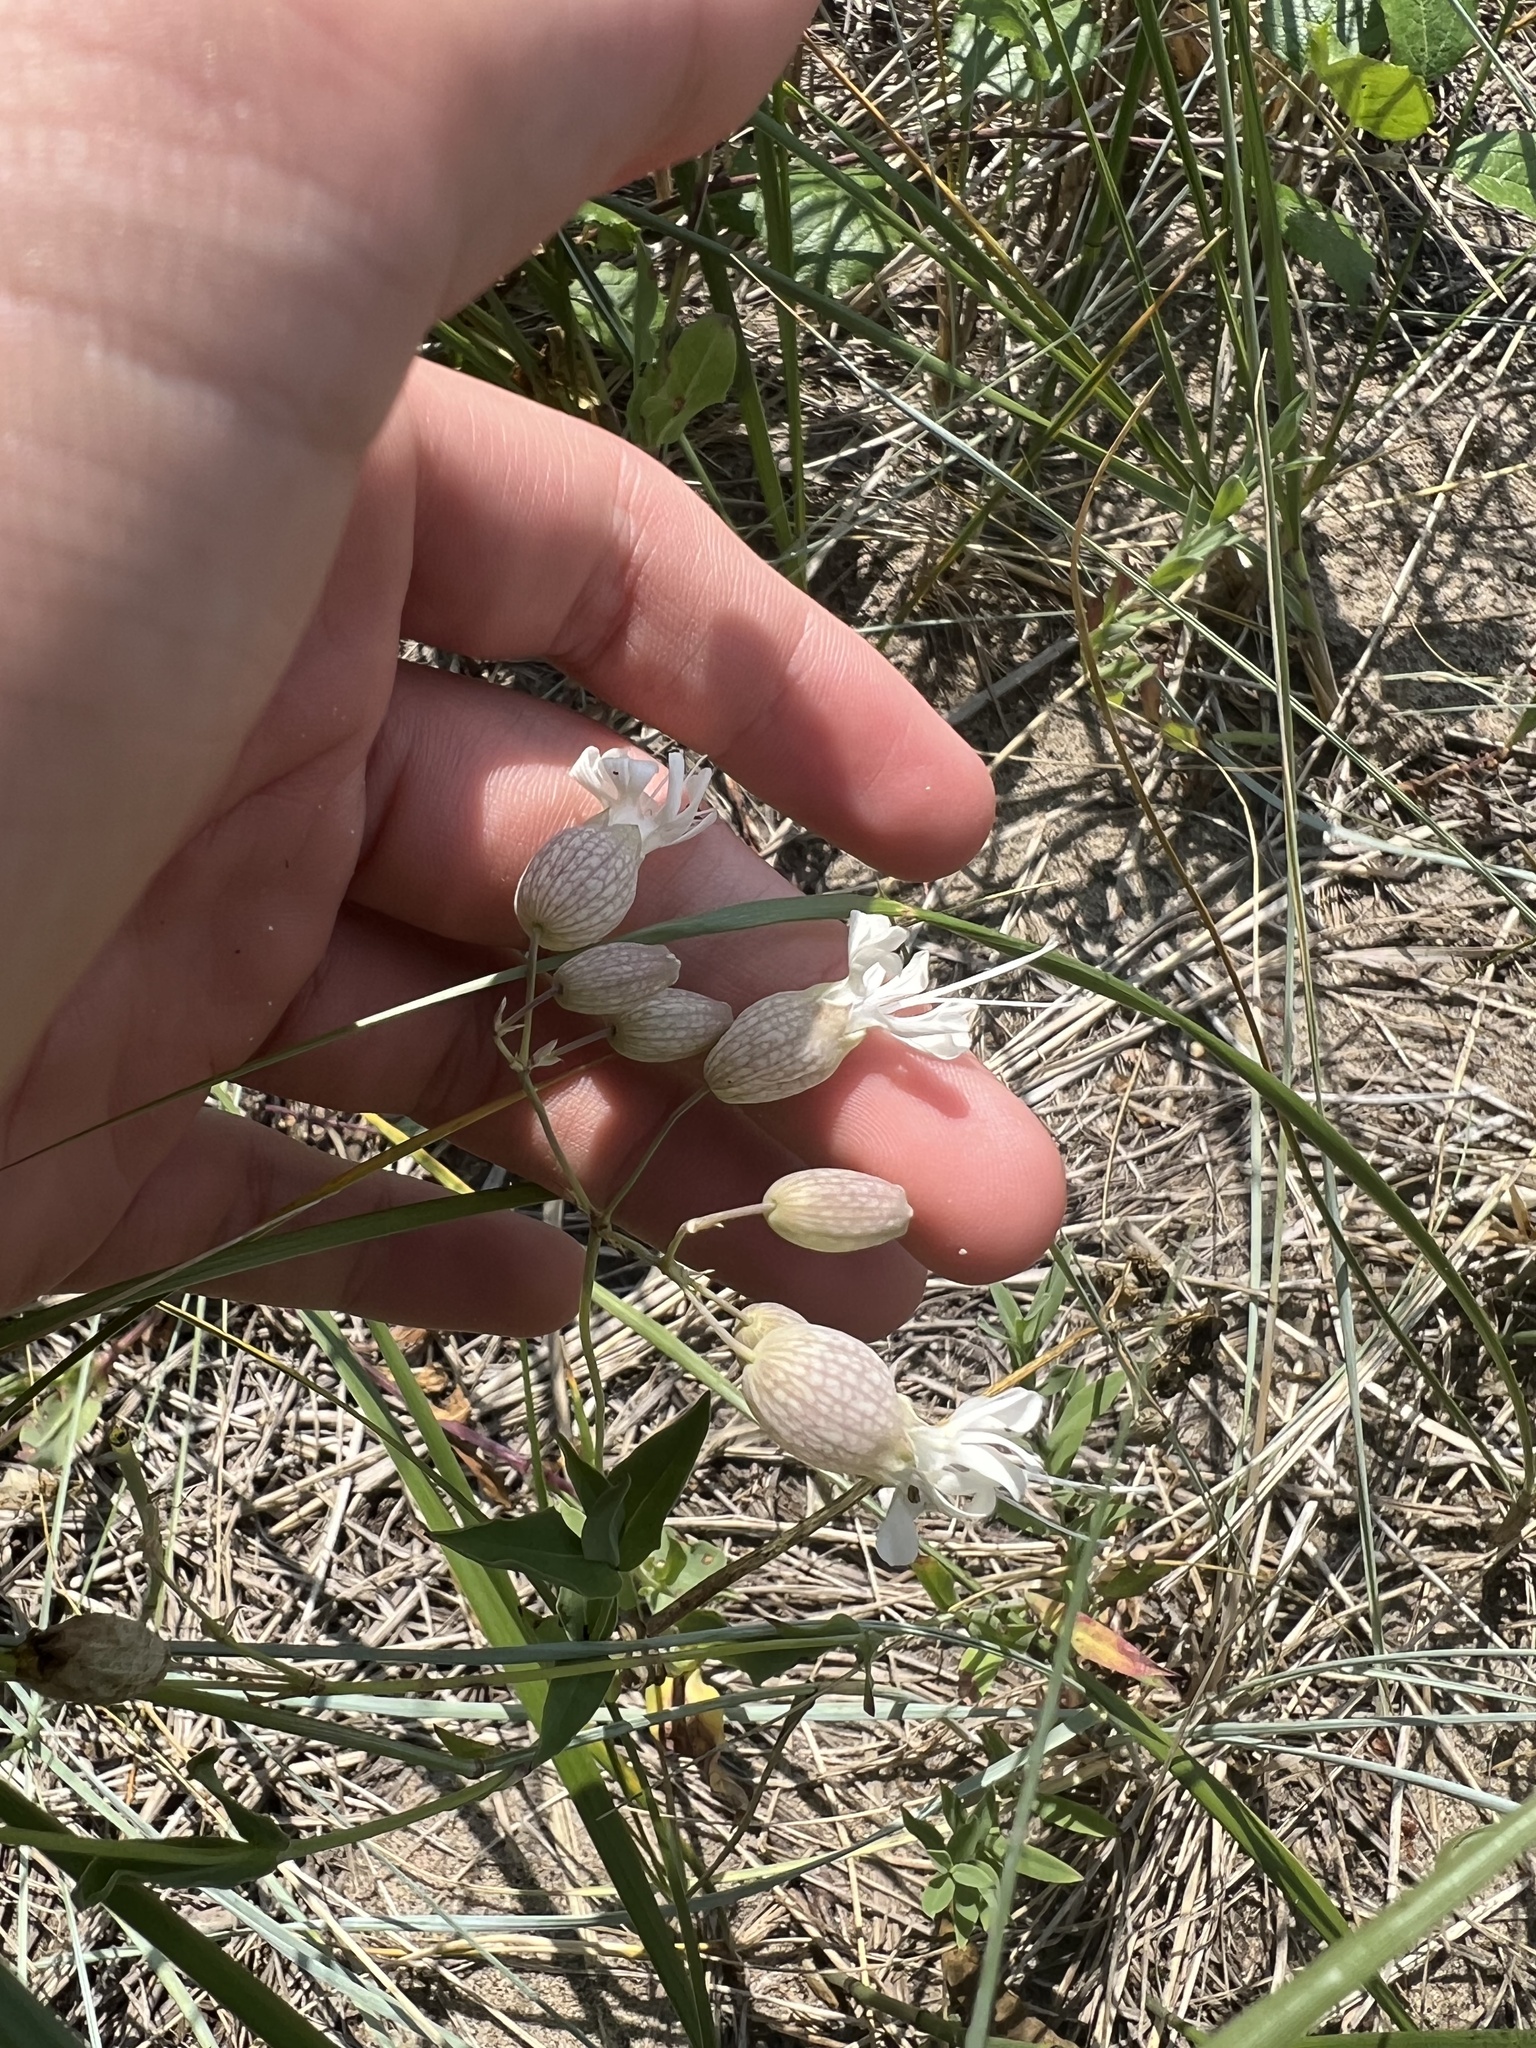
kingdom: Plantae
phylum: Tracheophyta
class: Magnoliopsida
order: Caryophyllales
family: Caryophyllaceae
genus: Silene
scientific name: Silene vulgaris
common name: Bladder campion
